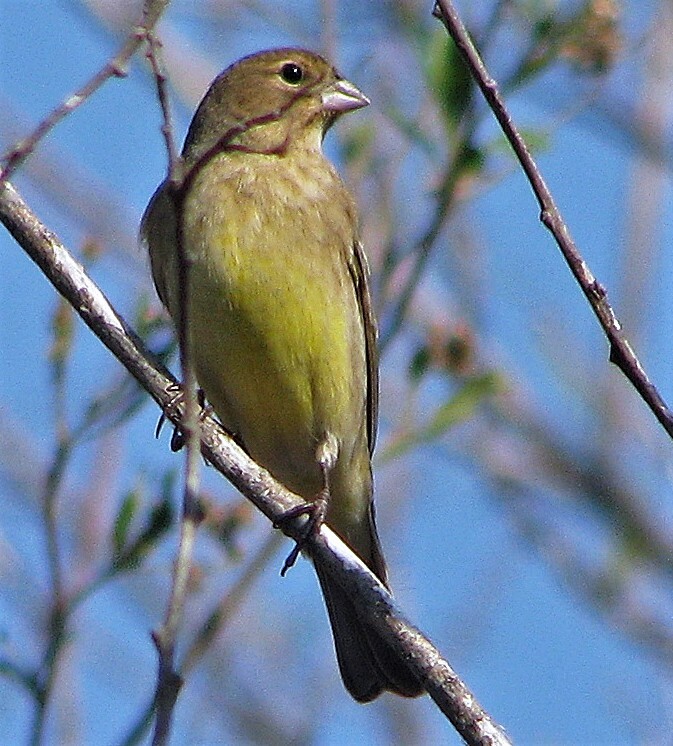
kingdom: Animalia
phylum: Chordata
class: Aves
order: Passeriformes
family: Thraupidae
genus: Sicalis
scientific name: Sicalis luteola
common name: Grassland yellow-finch
